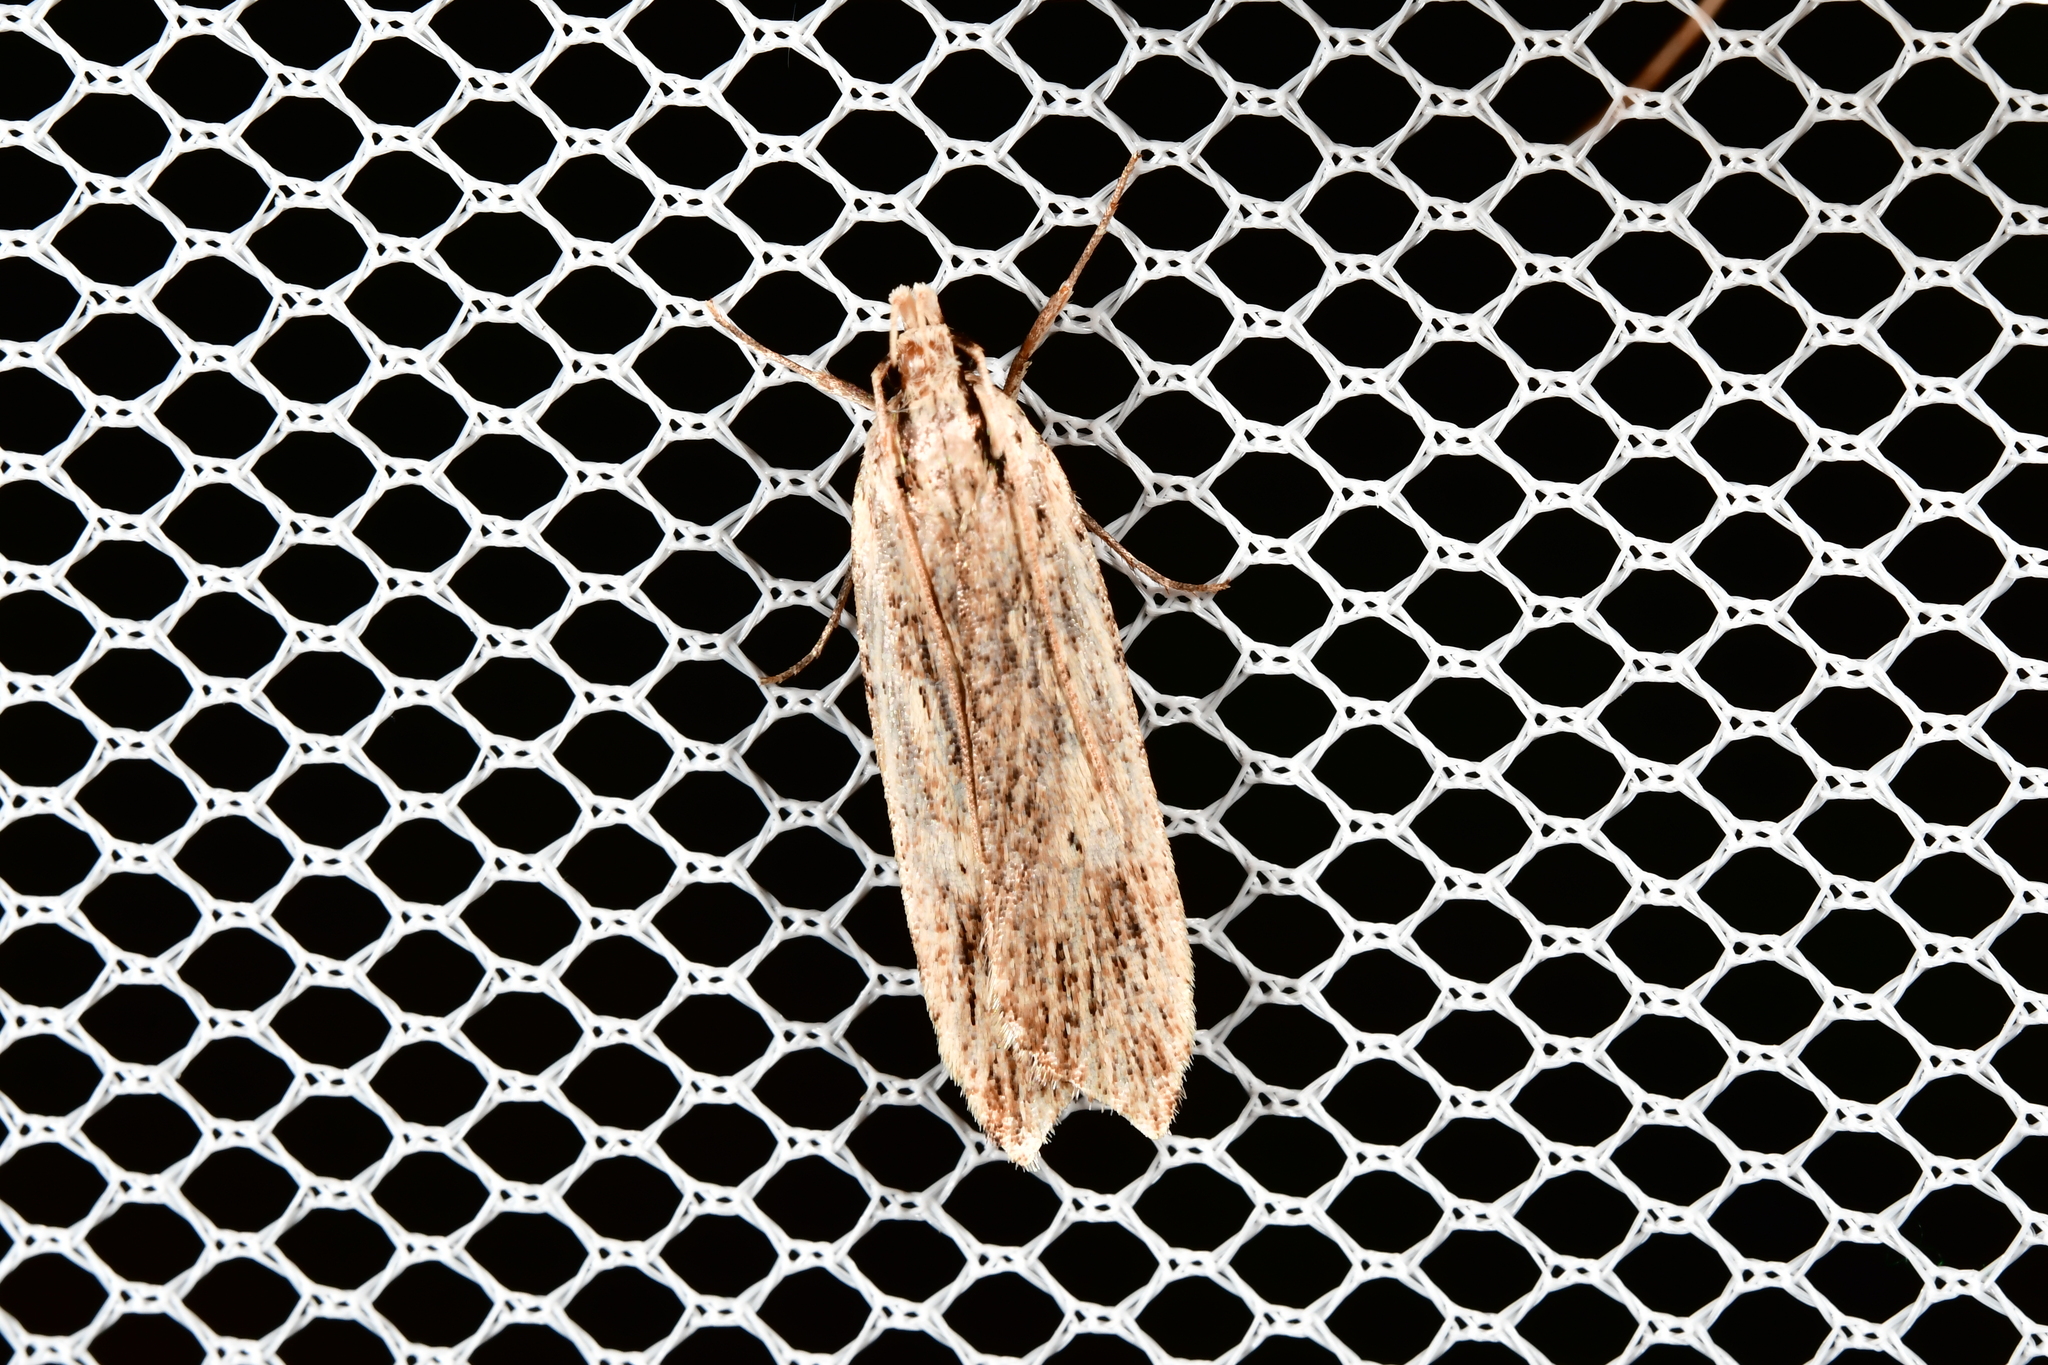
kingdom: Animalia
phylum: Arthropoda
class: Insecta
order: Lepidoptera
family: Gelechiidae
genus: Anisoplaca
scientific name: Anisoplaca ptyoptera
